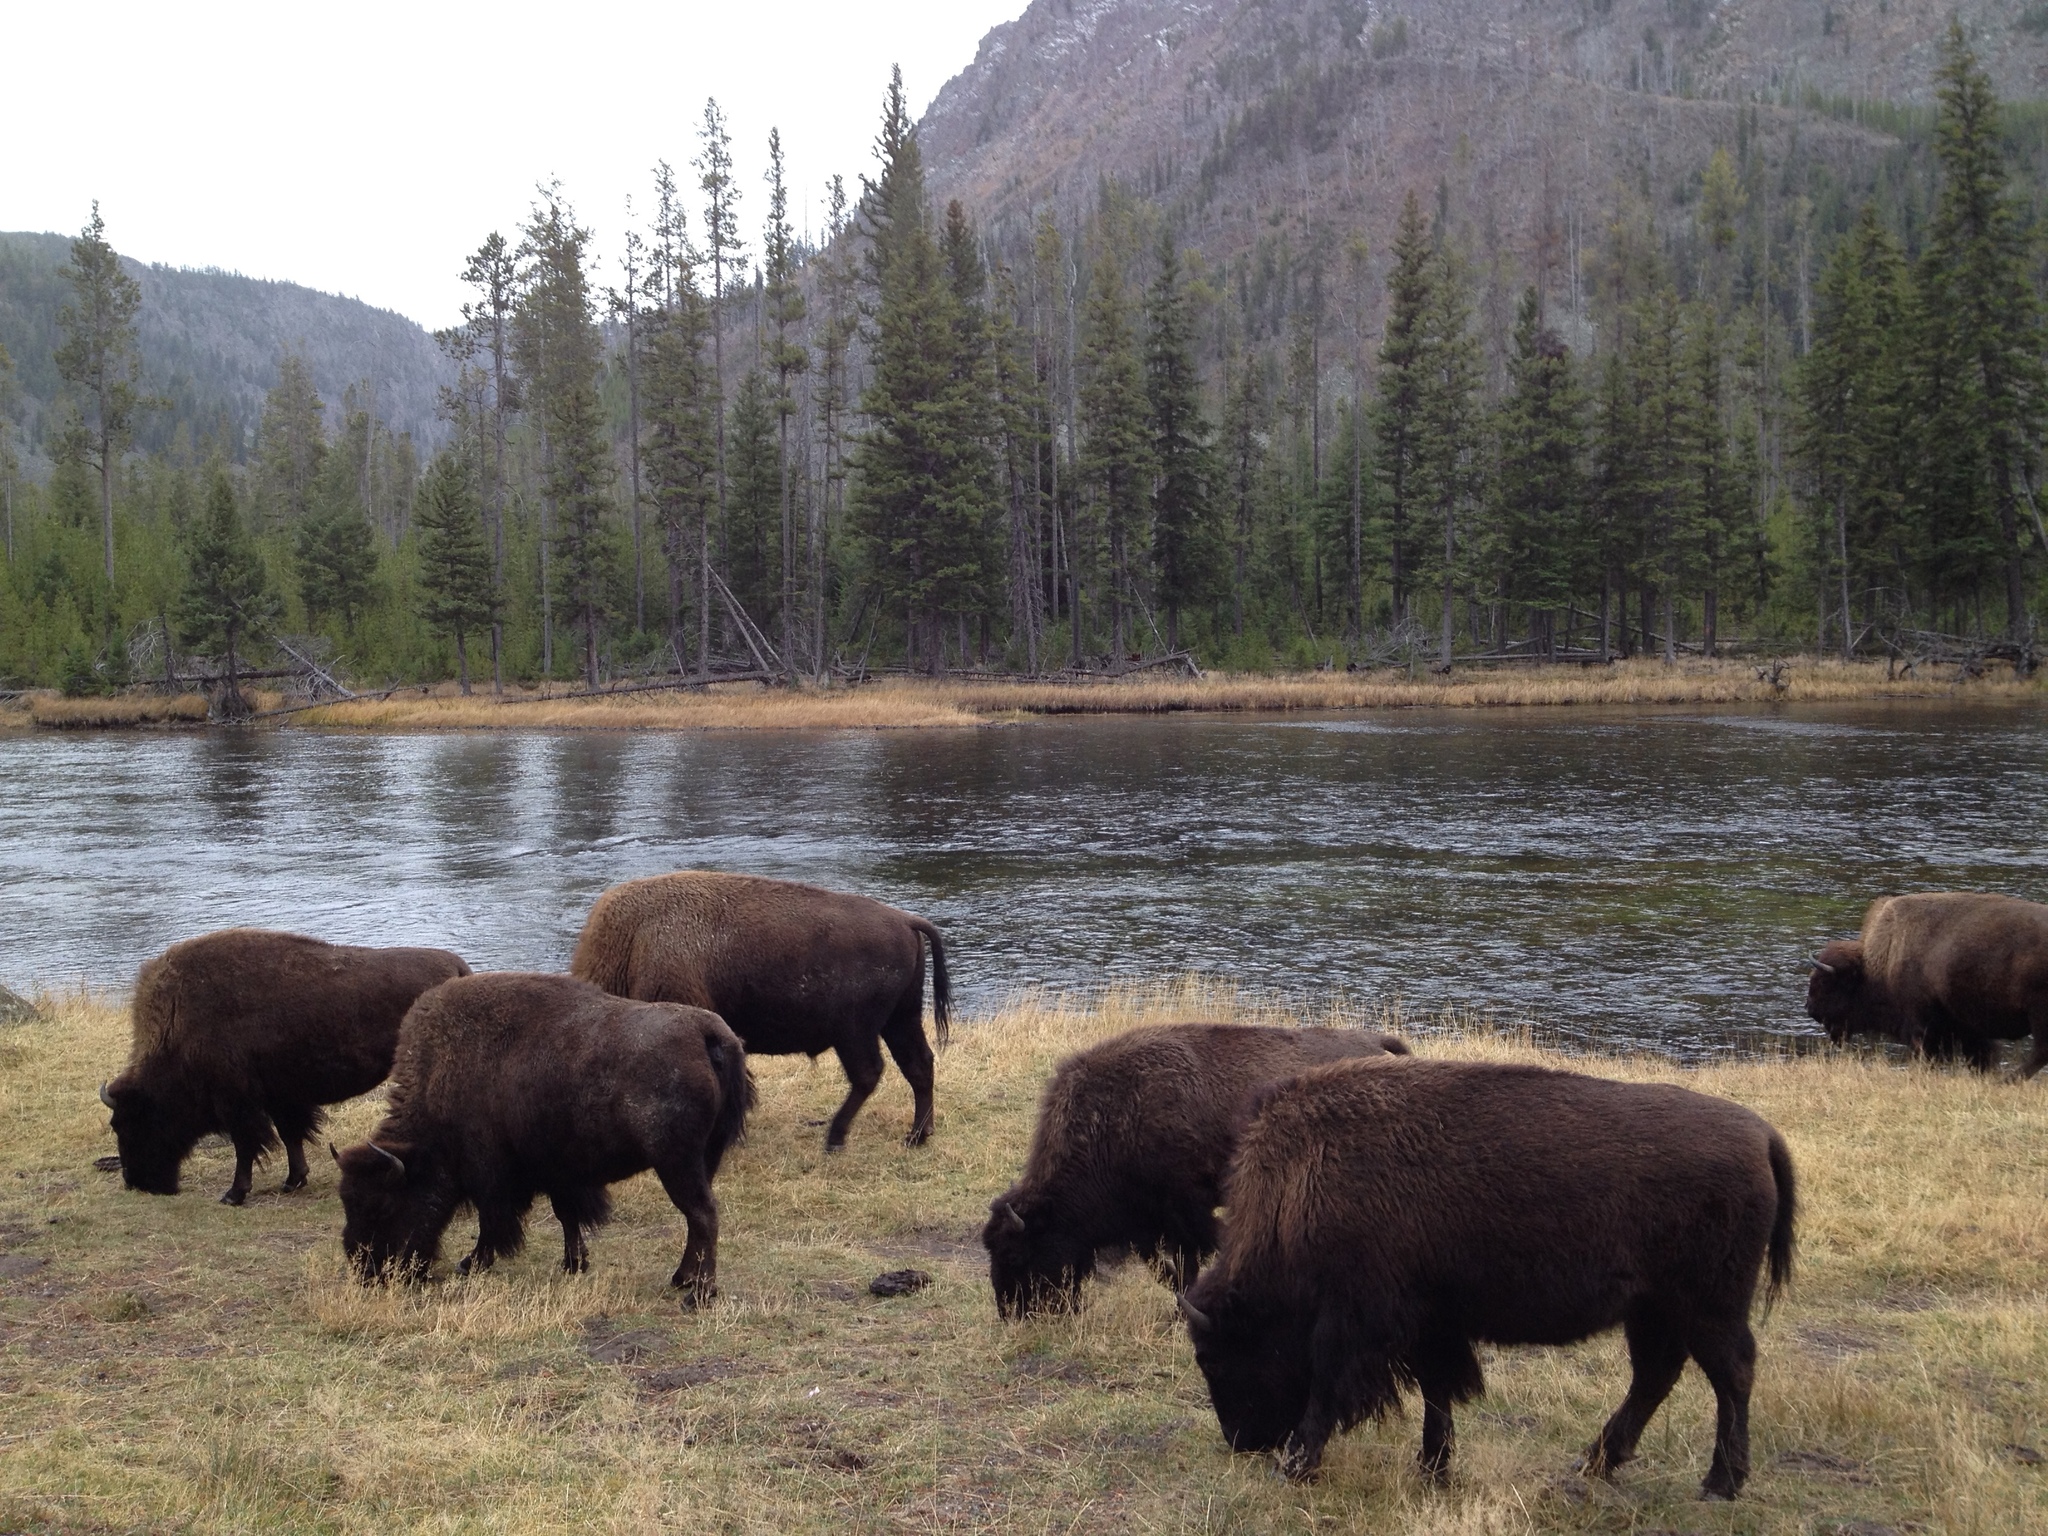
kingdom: Animalia
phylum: Chordata
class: Mammalia
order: Artiodactyla
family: Bovidae
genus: Bison
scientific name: Bison bison
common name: American bison
